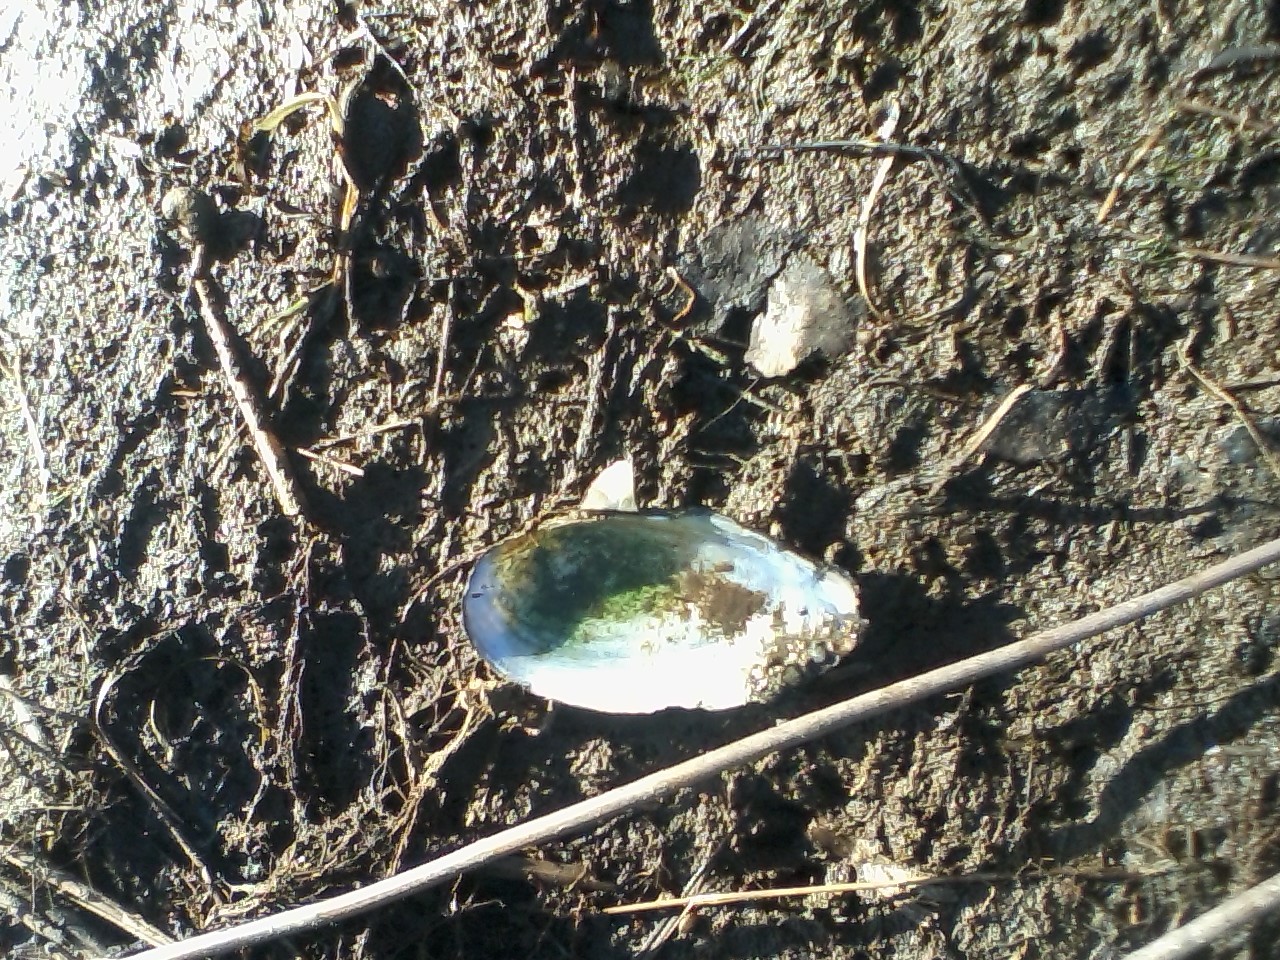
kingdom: Animalia
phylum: Mollusca
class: Bivalvia
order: Unionida
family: Unionidae
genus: Beringiana
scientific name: Beringiana beringiana
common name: Yukon floater
